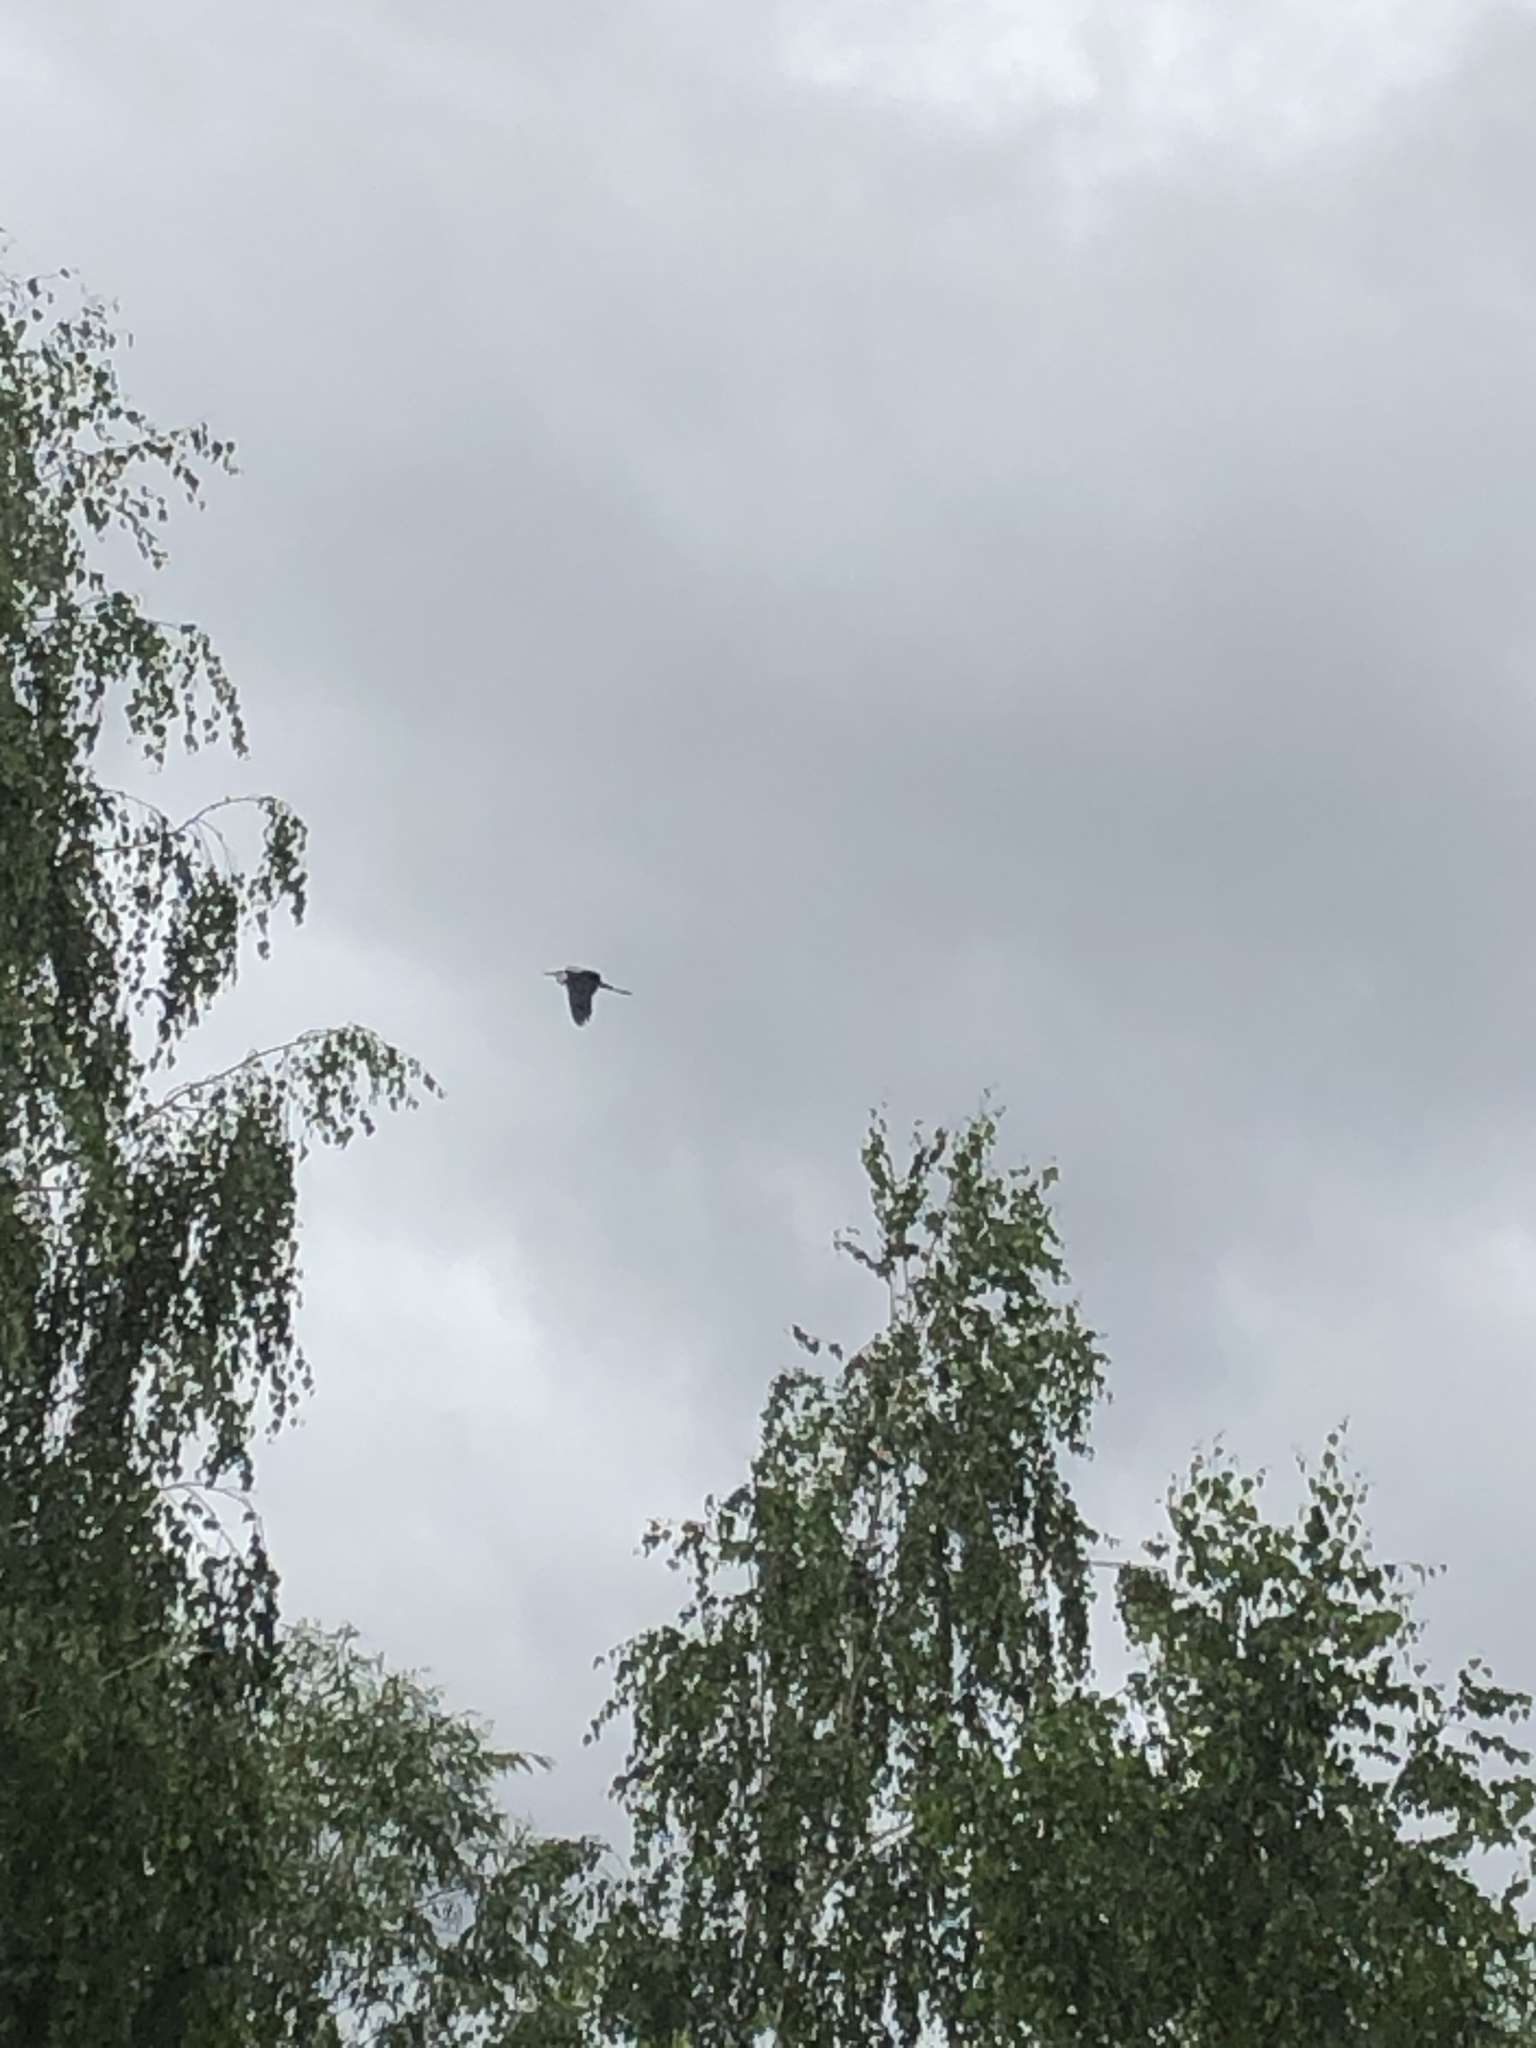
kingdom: Animalia
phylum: Chordata
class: Aves
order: Pelecaniformes
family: Ardeidae
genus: Ardea
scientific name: Ardea cinerea
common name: Grey heron
